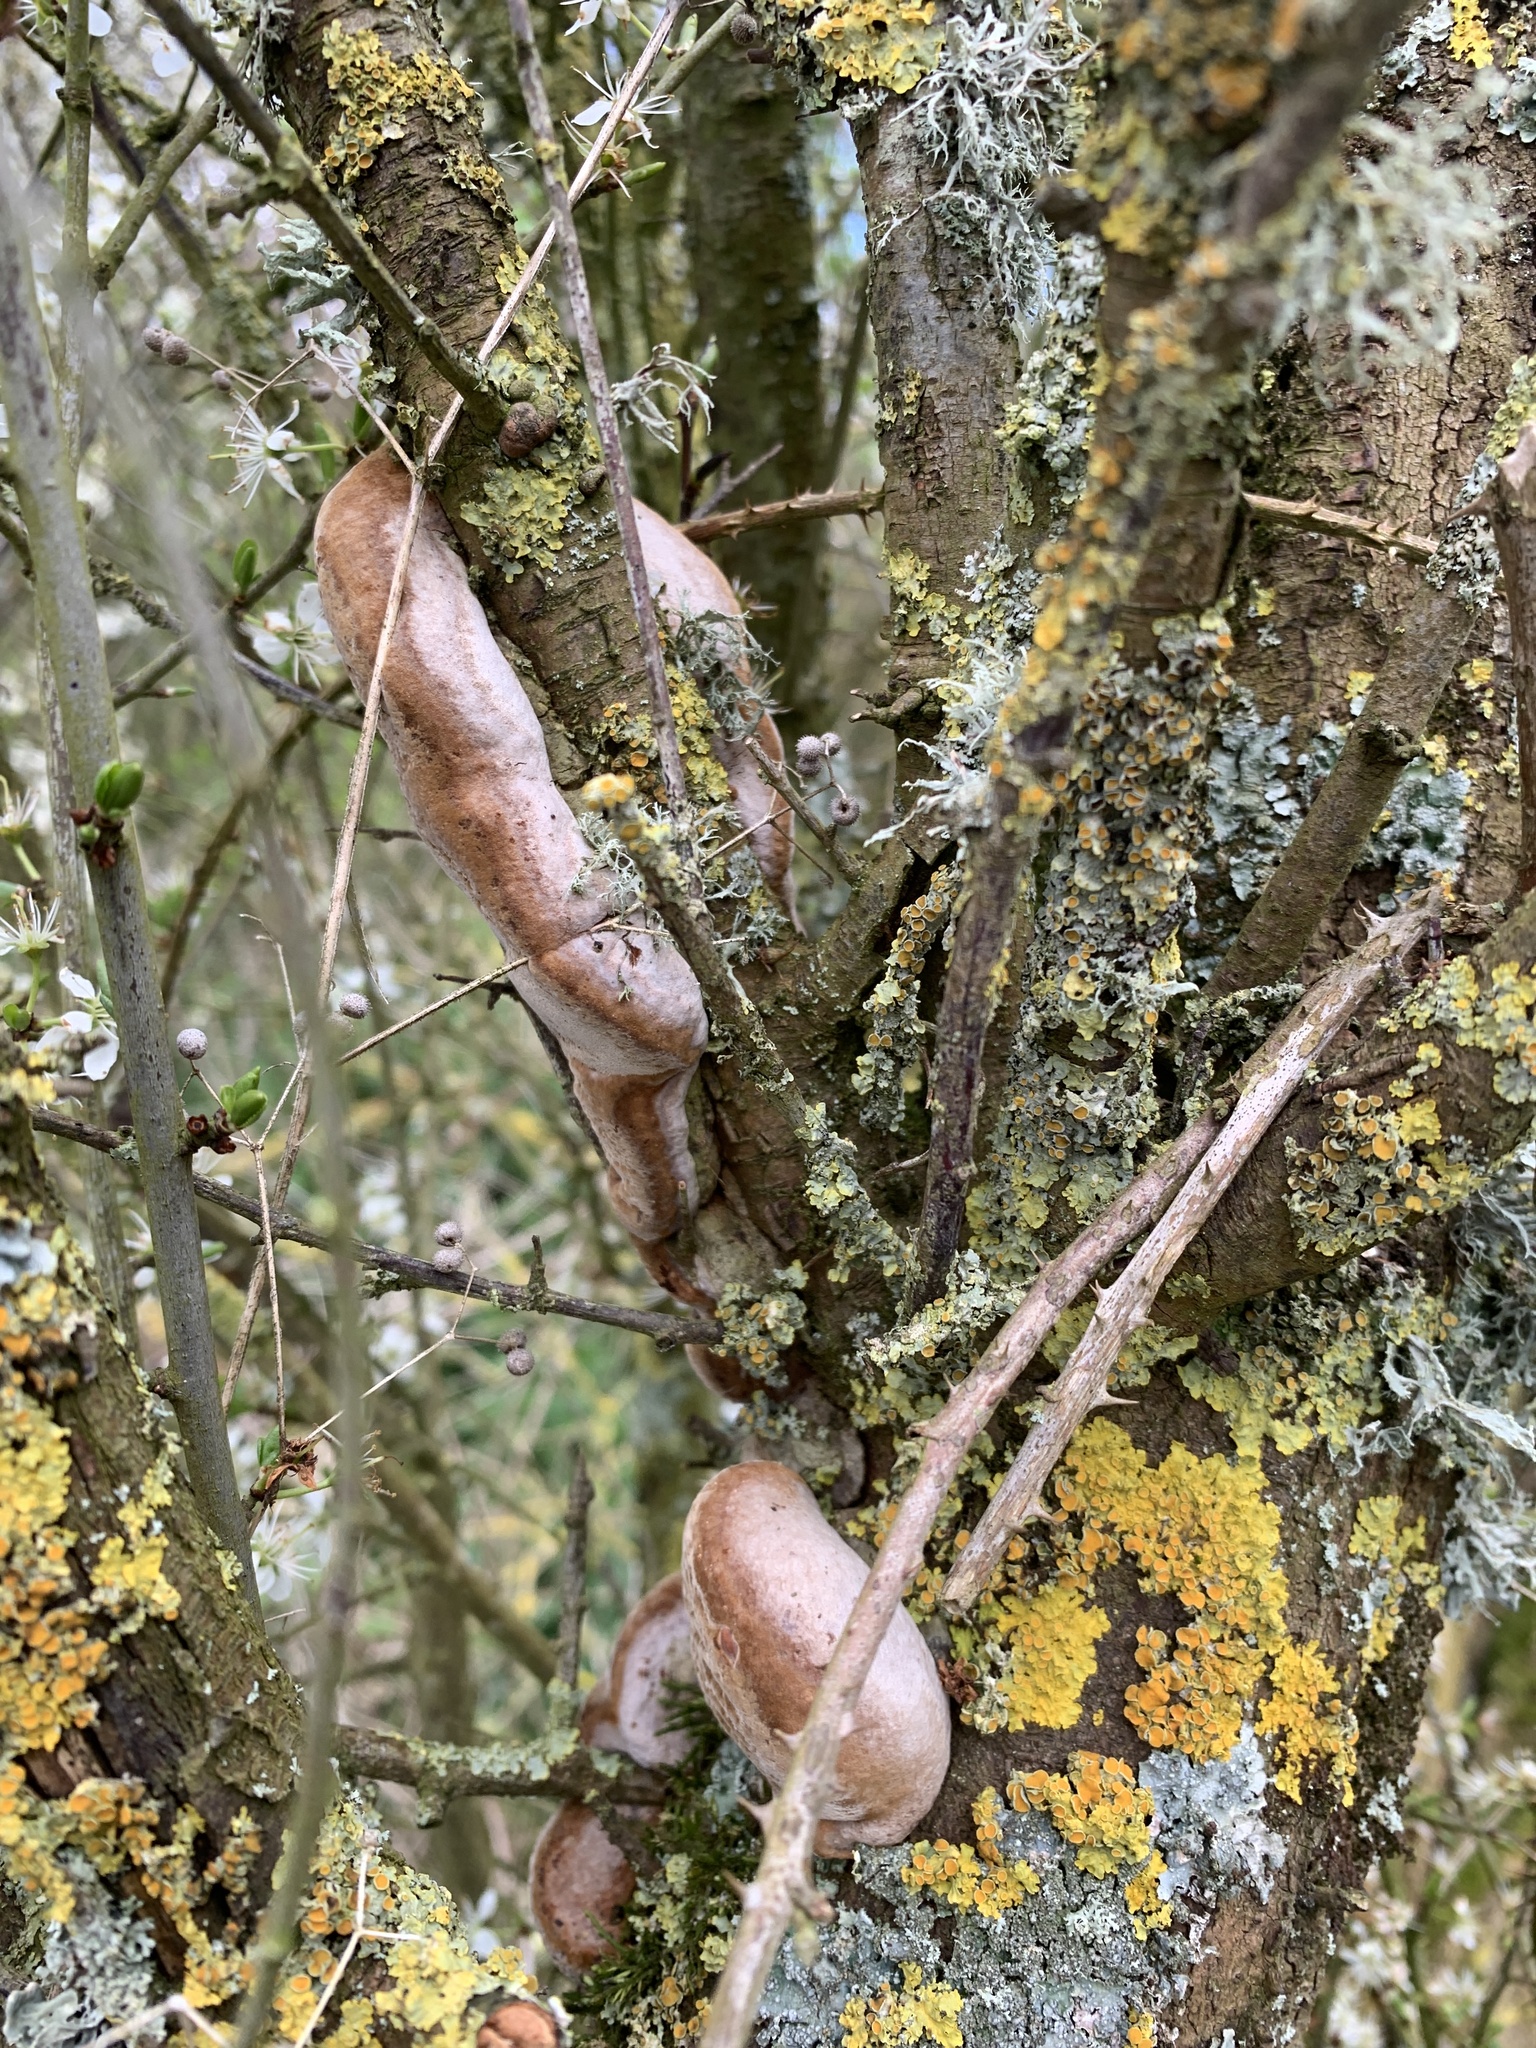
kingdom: Fungi
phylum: Basidiomycota
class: Agaricomycetes
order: Hymenochaetales
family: Hymenochaetaceae
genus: Phellinus
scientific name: Phellinus pomaceus
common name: Cushion bracket
